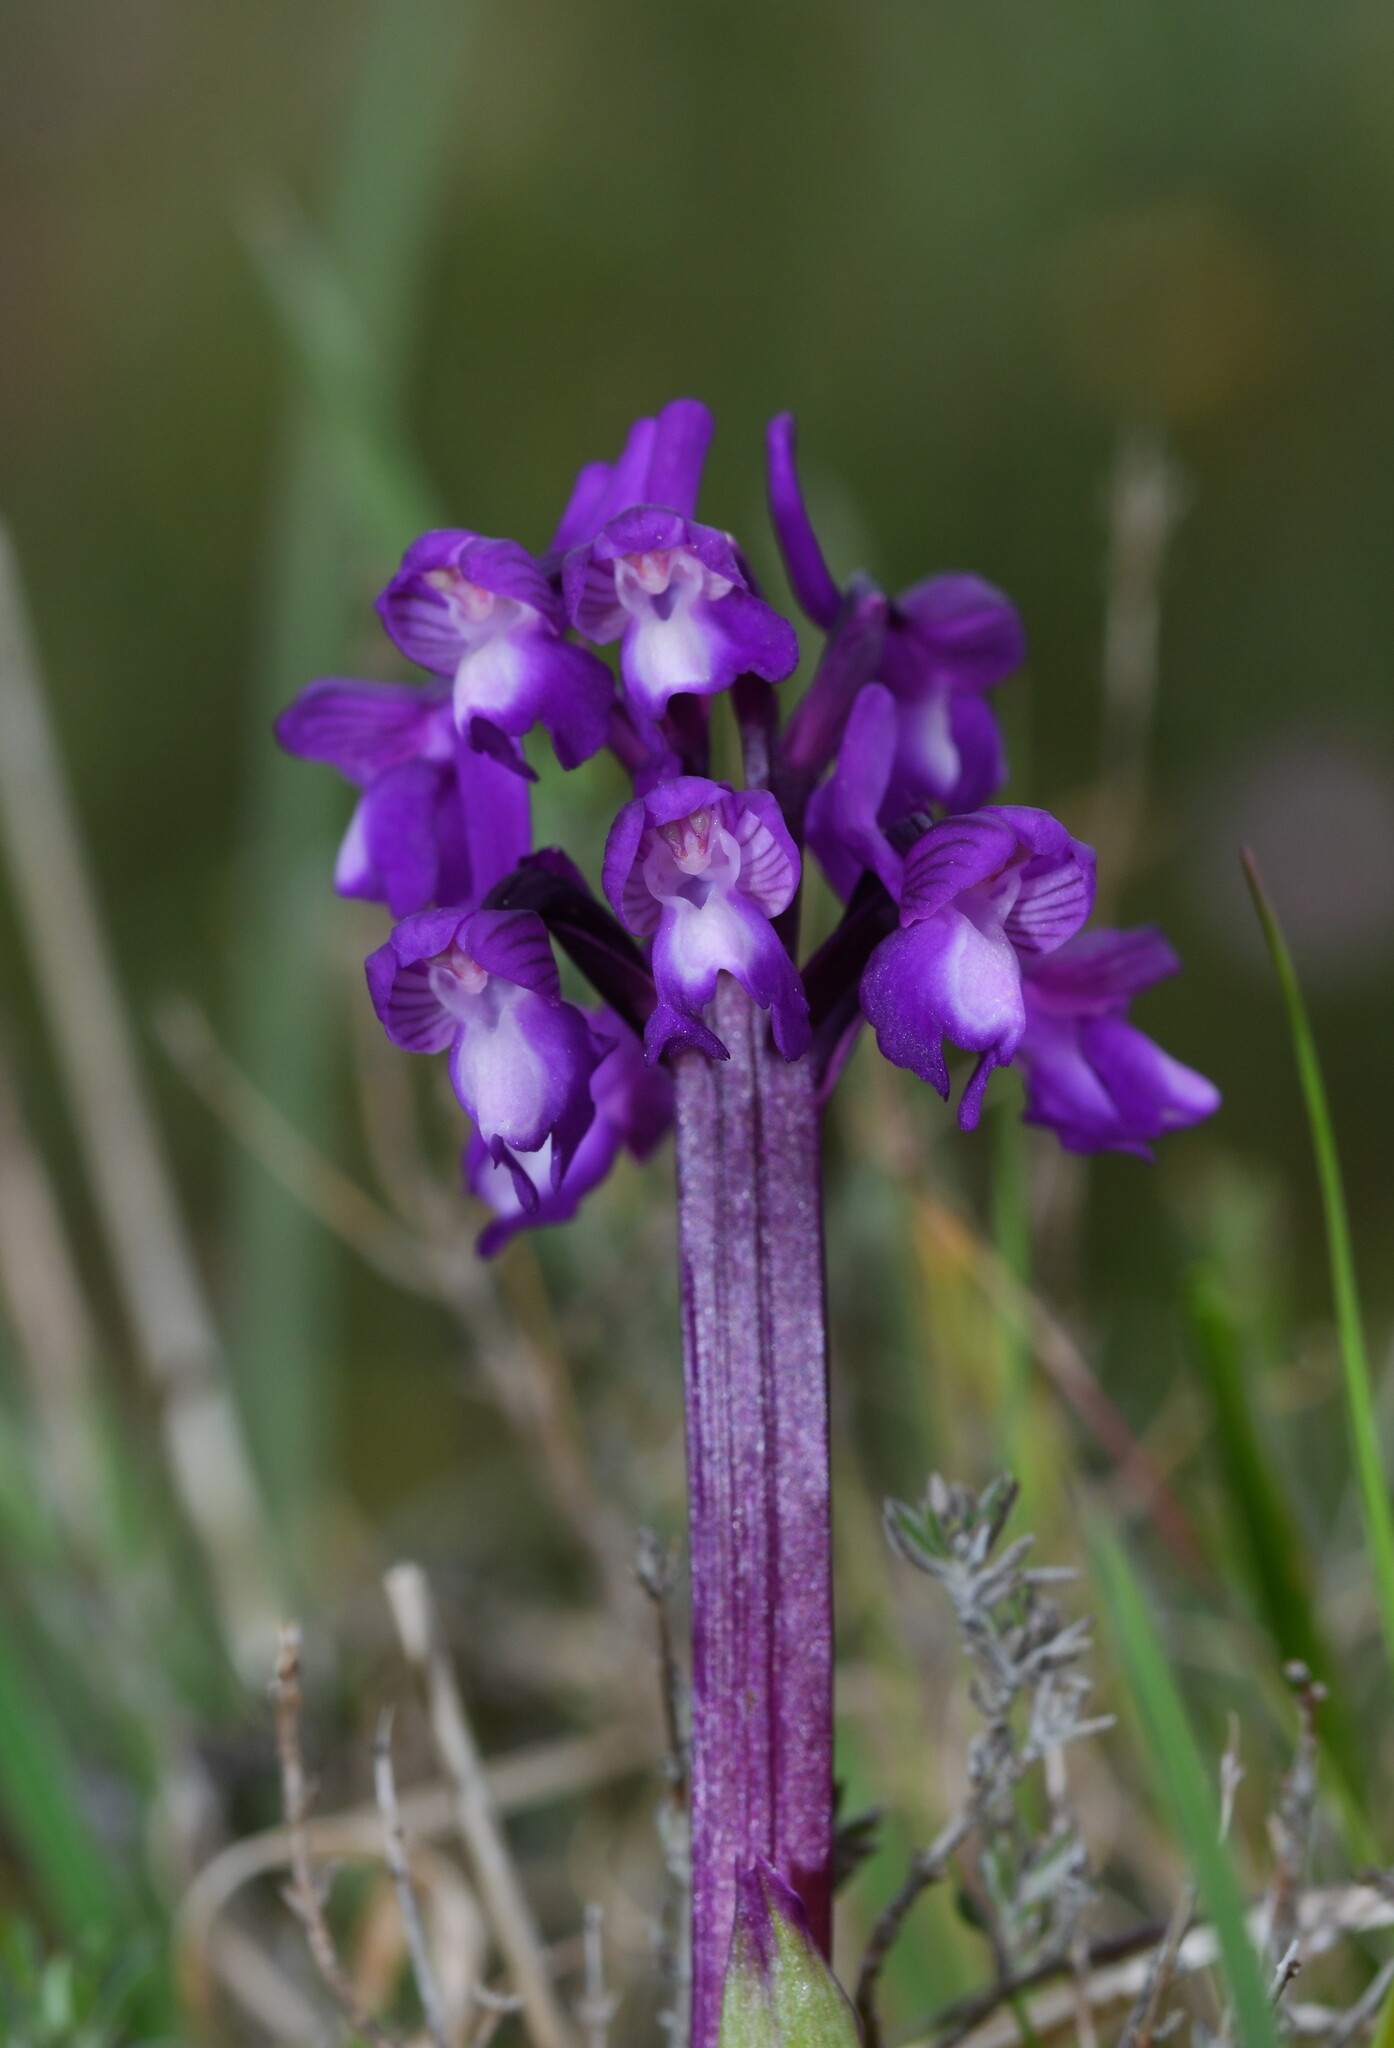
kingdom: Plantae
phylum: Tracheophyta
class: Liliopsida
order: Asparagales
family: Orchidaceae
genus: Anacamptis
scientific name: Anacamptis morio
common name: Green-winged orchid
